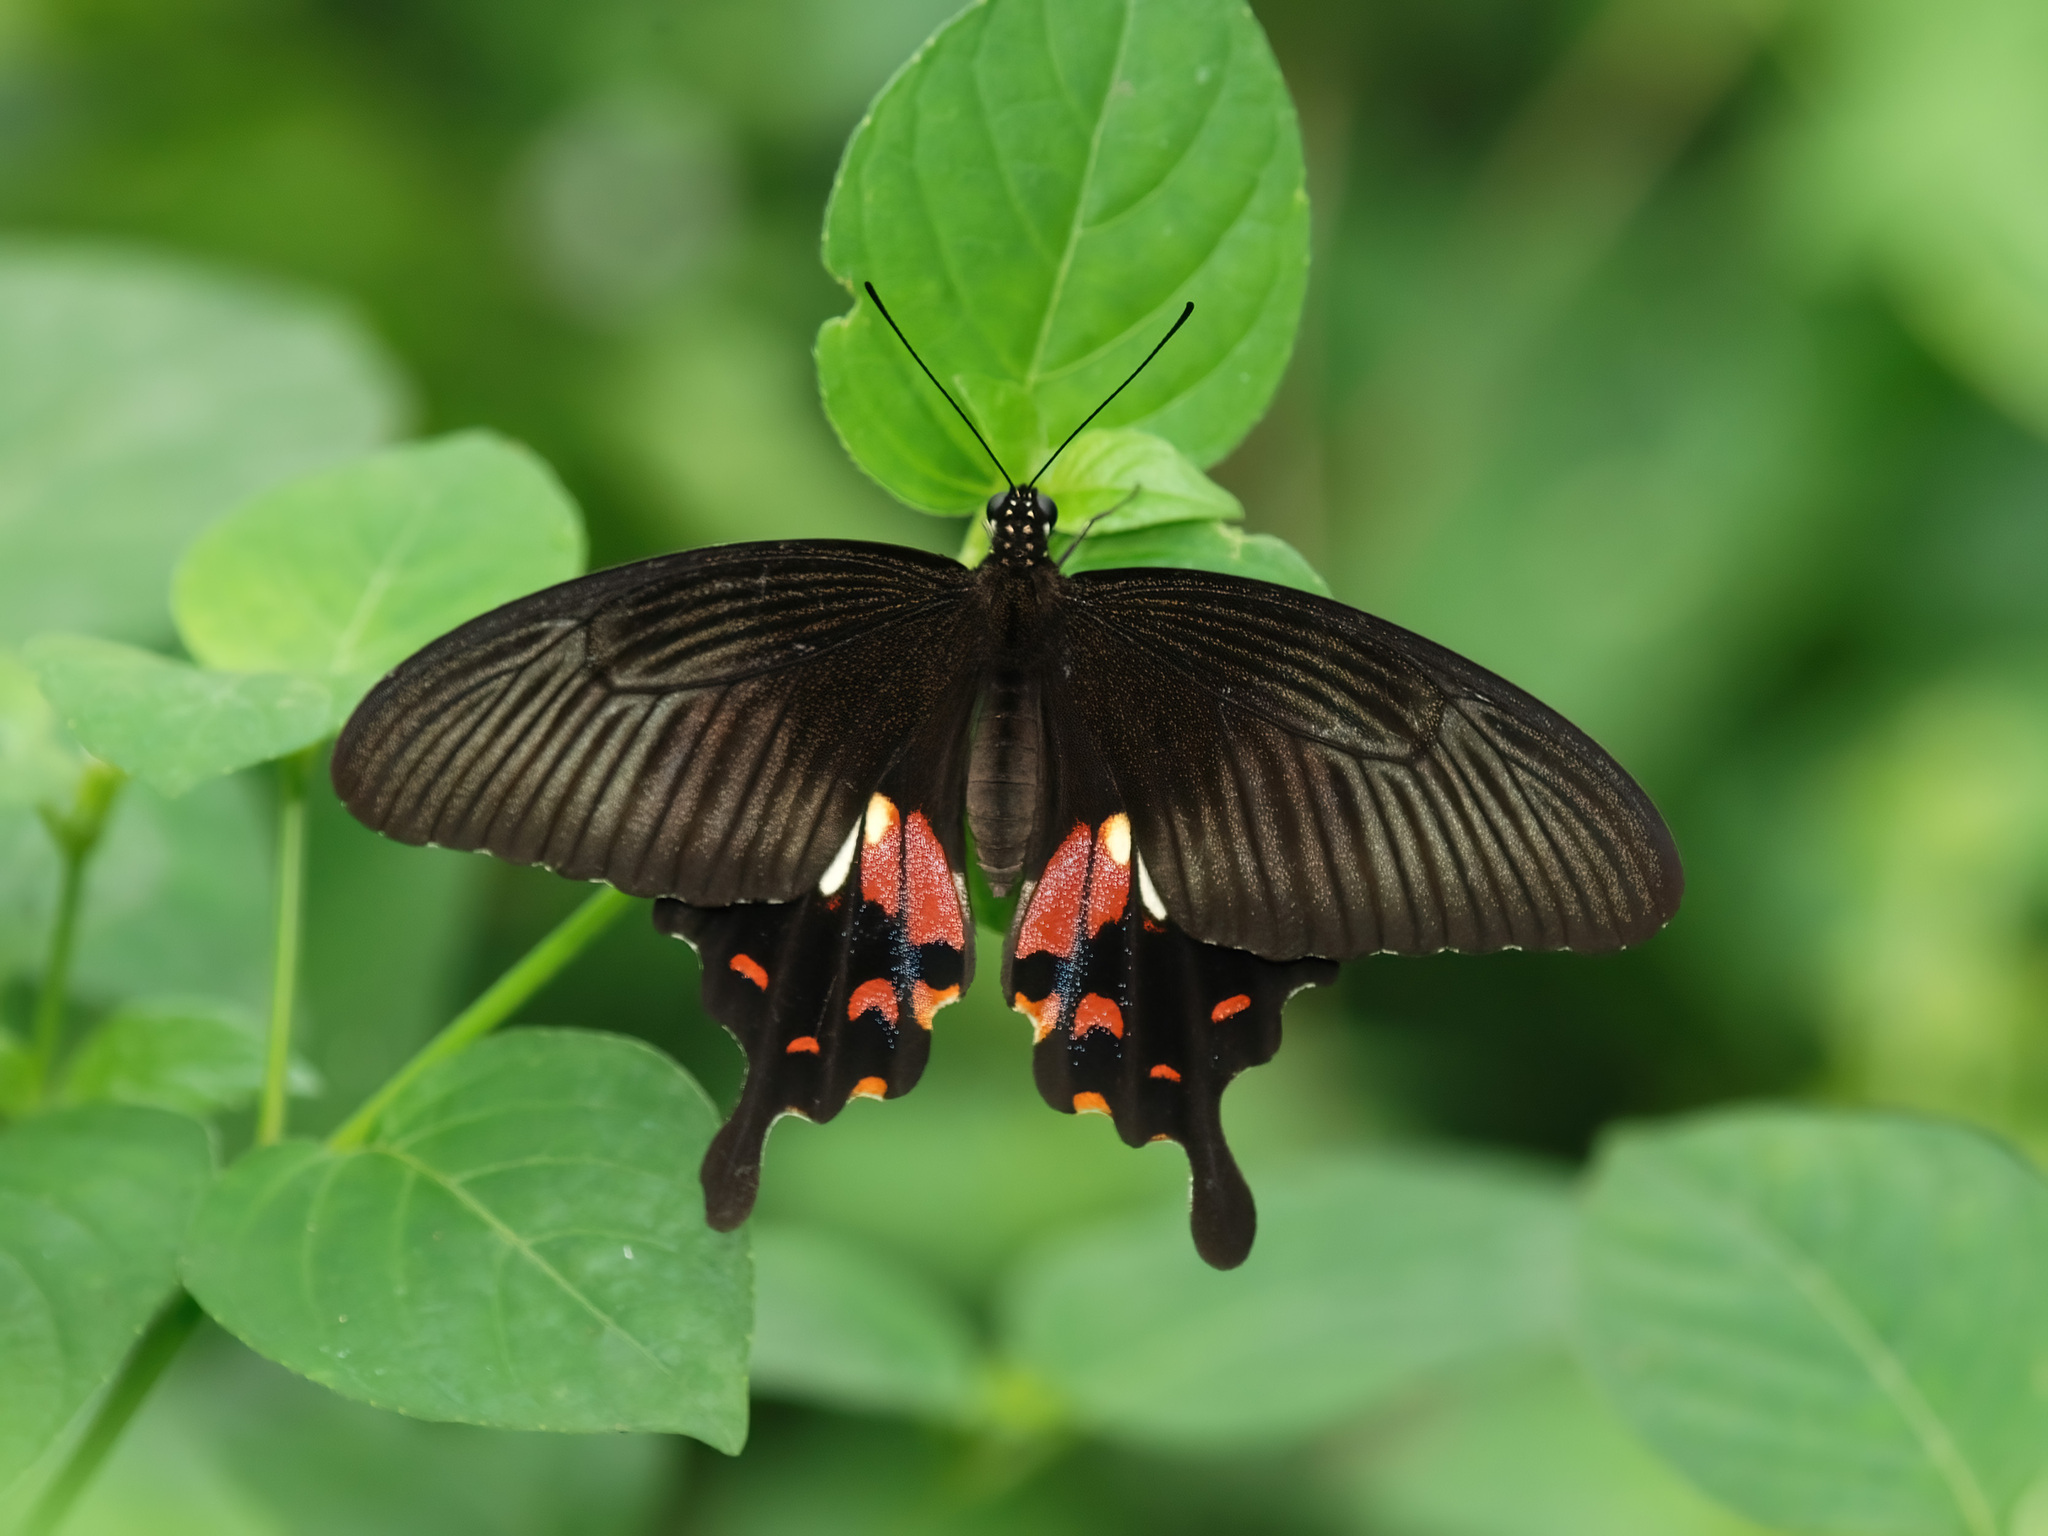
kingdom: Animalia
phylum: Arthropoda
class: Insecta
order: Lepidoptera
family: Papilionidae
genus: Papilio
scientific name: Papilio polytes
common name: Common mormon
